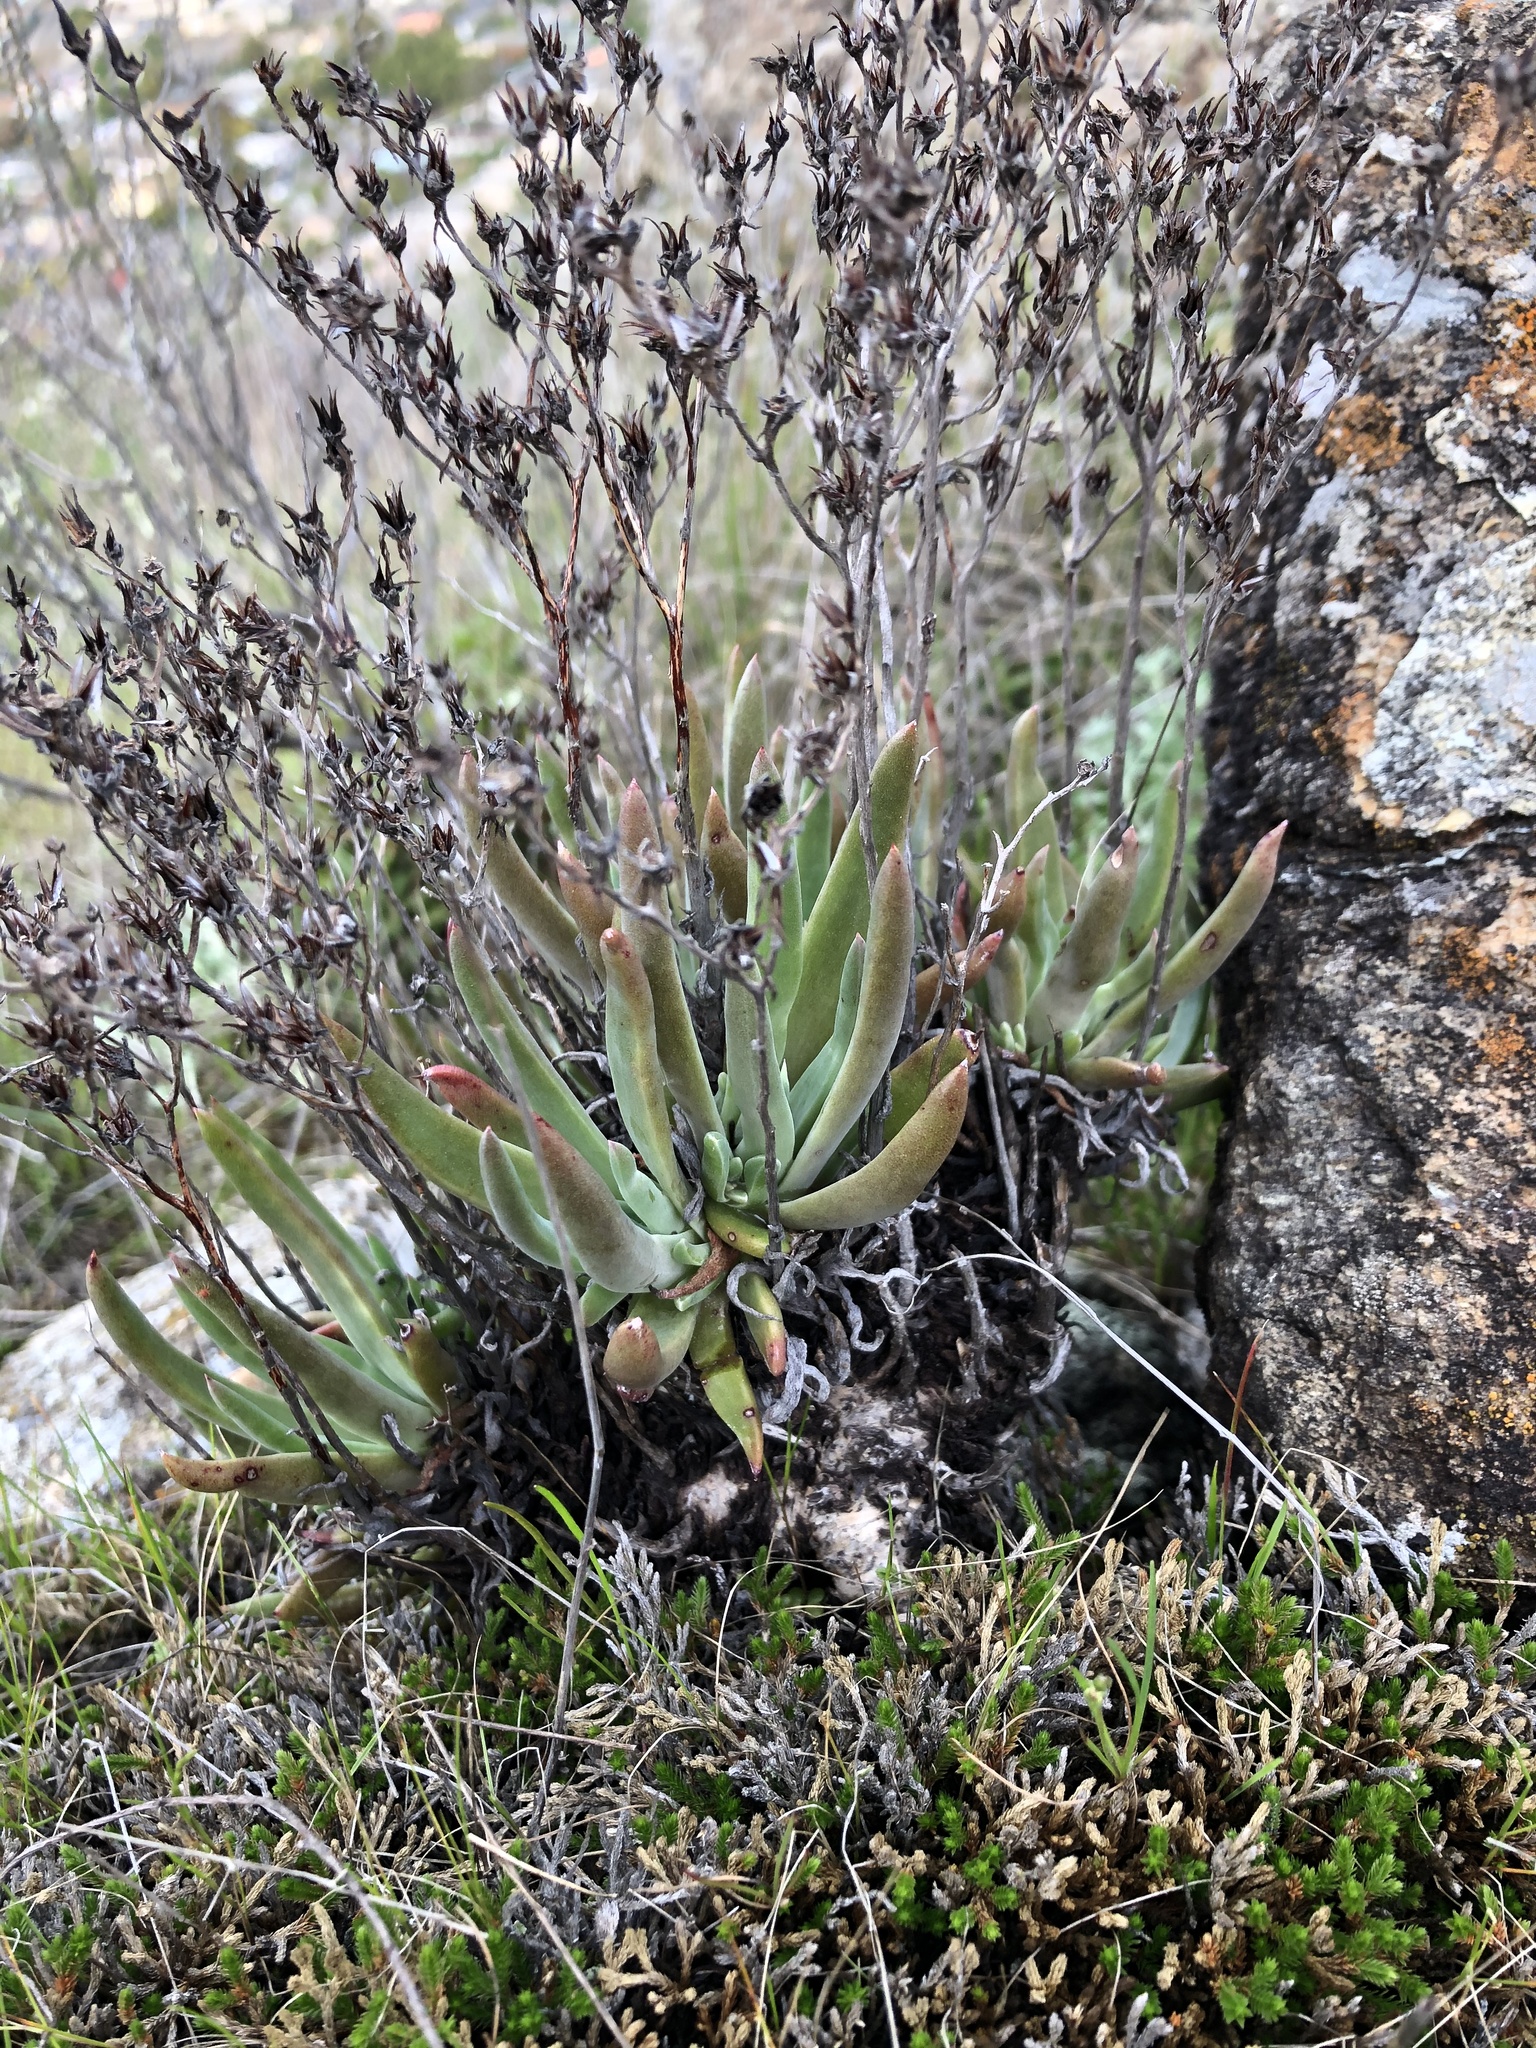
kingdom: Plantae
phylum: Tracheophyta
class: Magnoliopsida
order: Saxifragales
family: Crassulaceae
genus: Dudleya
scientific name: Dudleya abramsii
